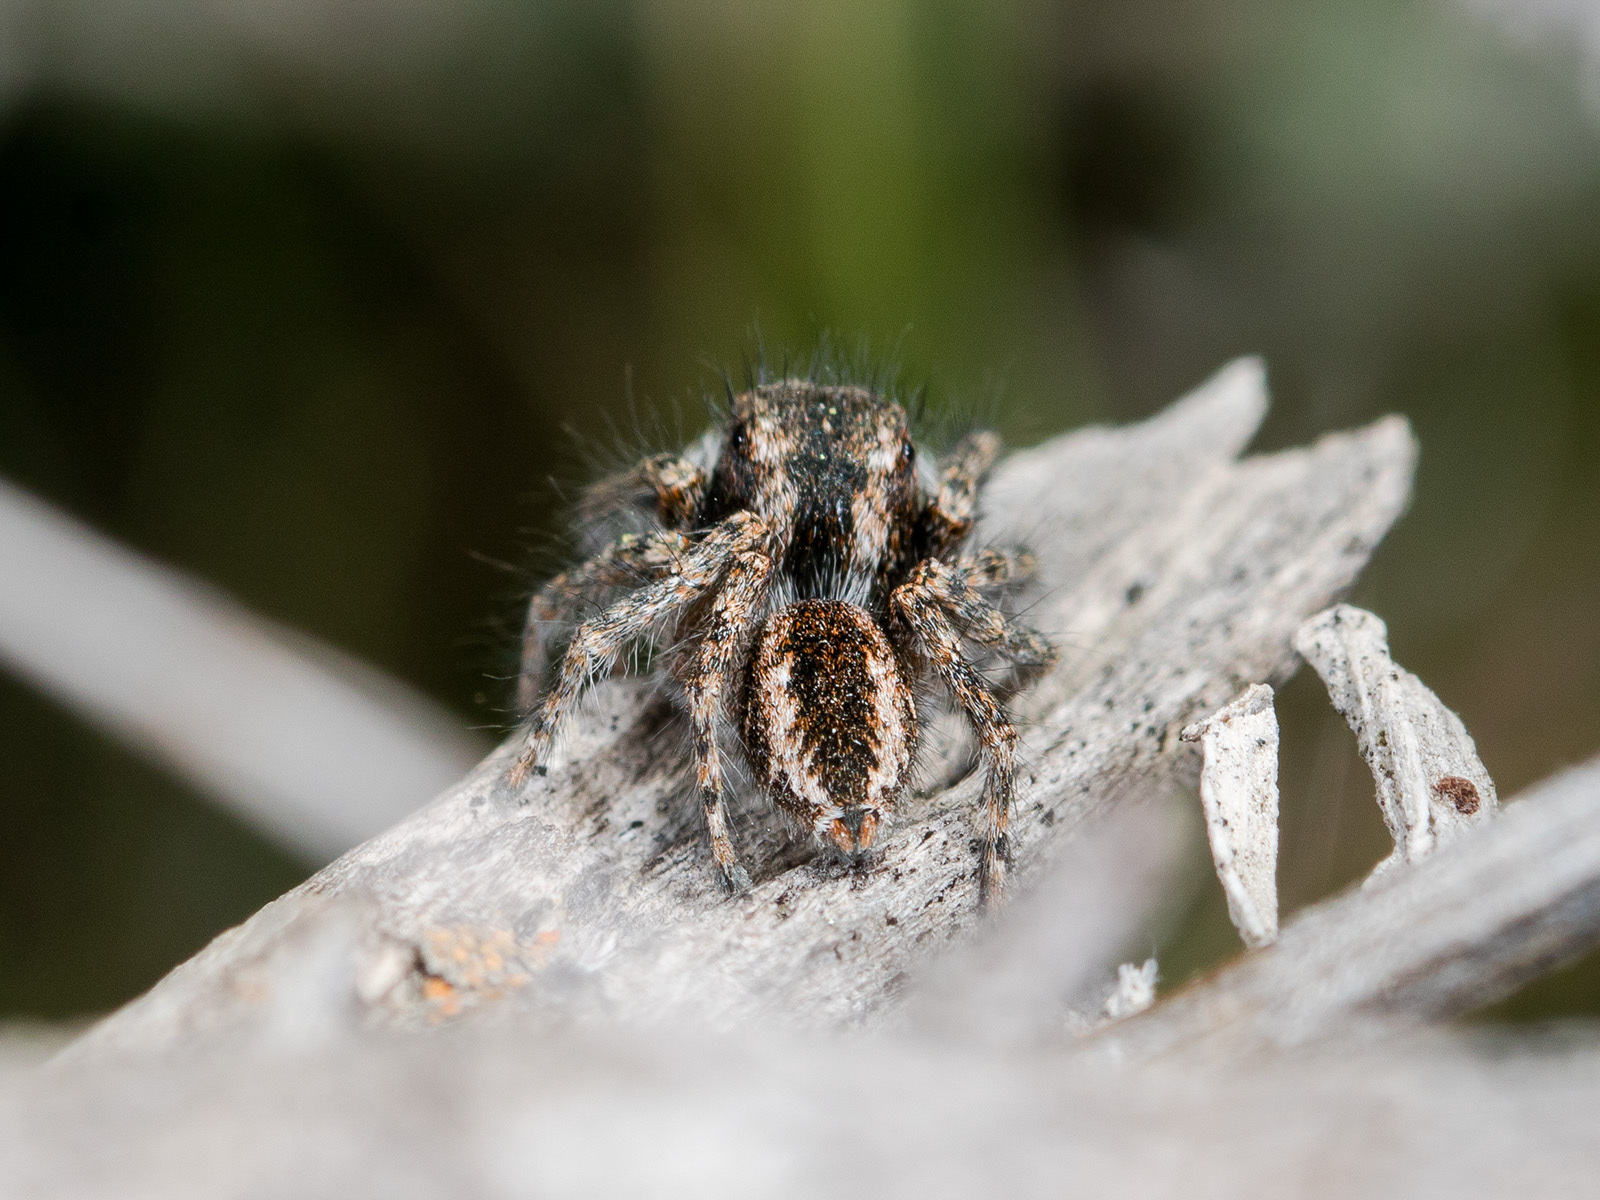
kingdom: Animalia
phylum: Arthropoda
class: Arachnida
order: Araneae
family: Salticidae
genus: Mogrus
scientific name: Mogrus larisae
